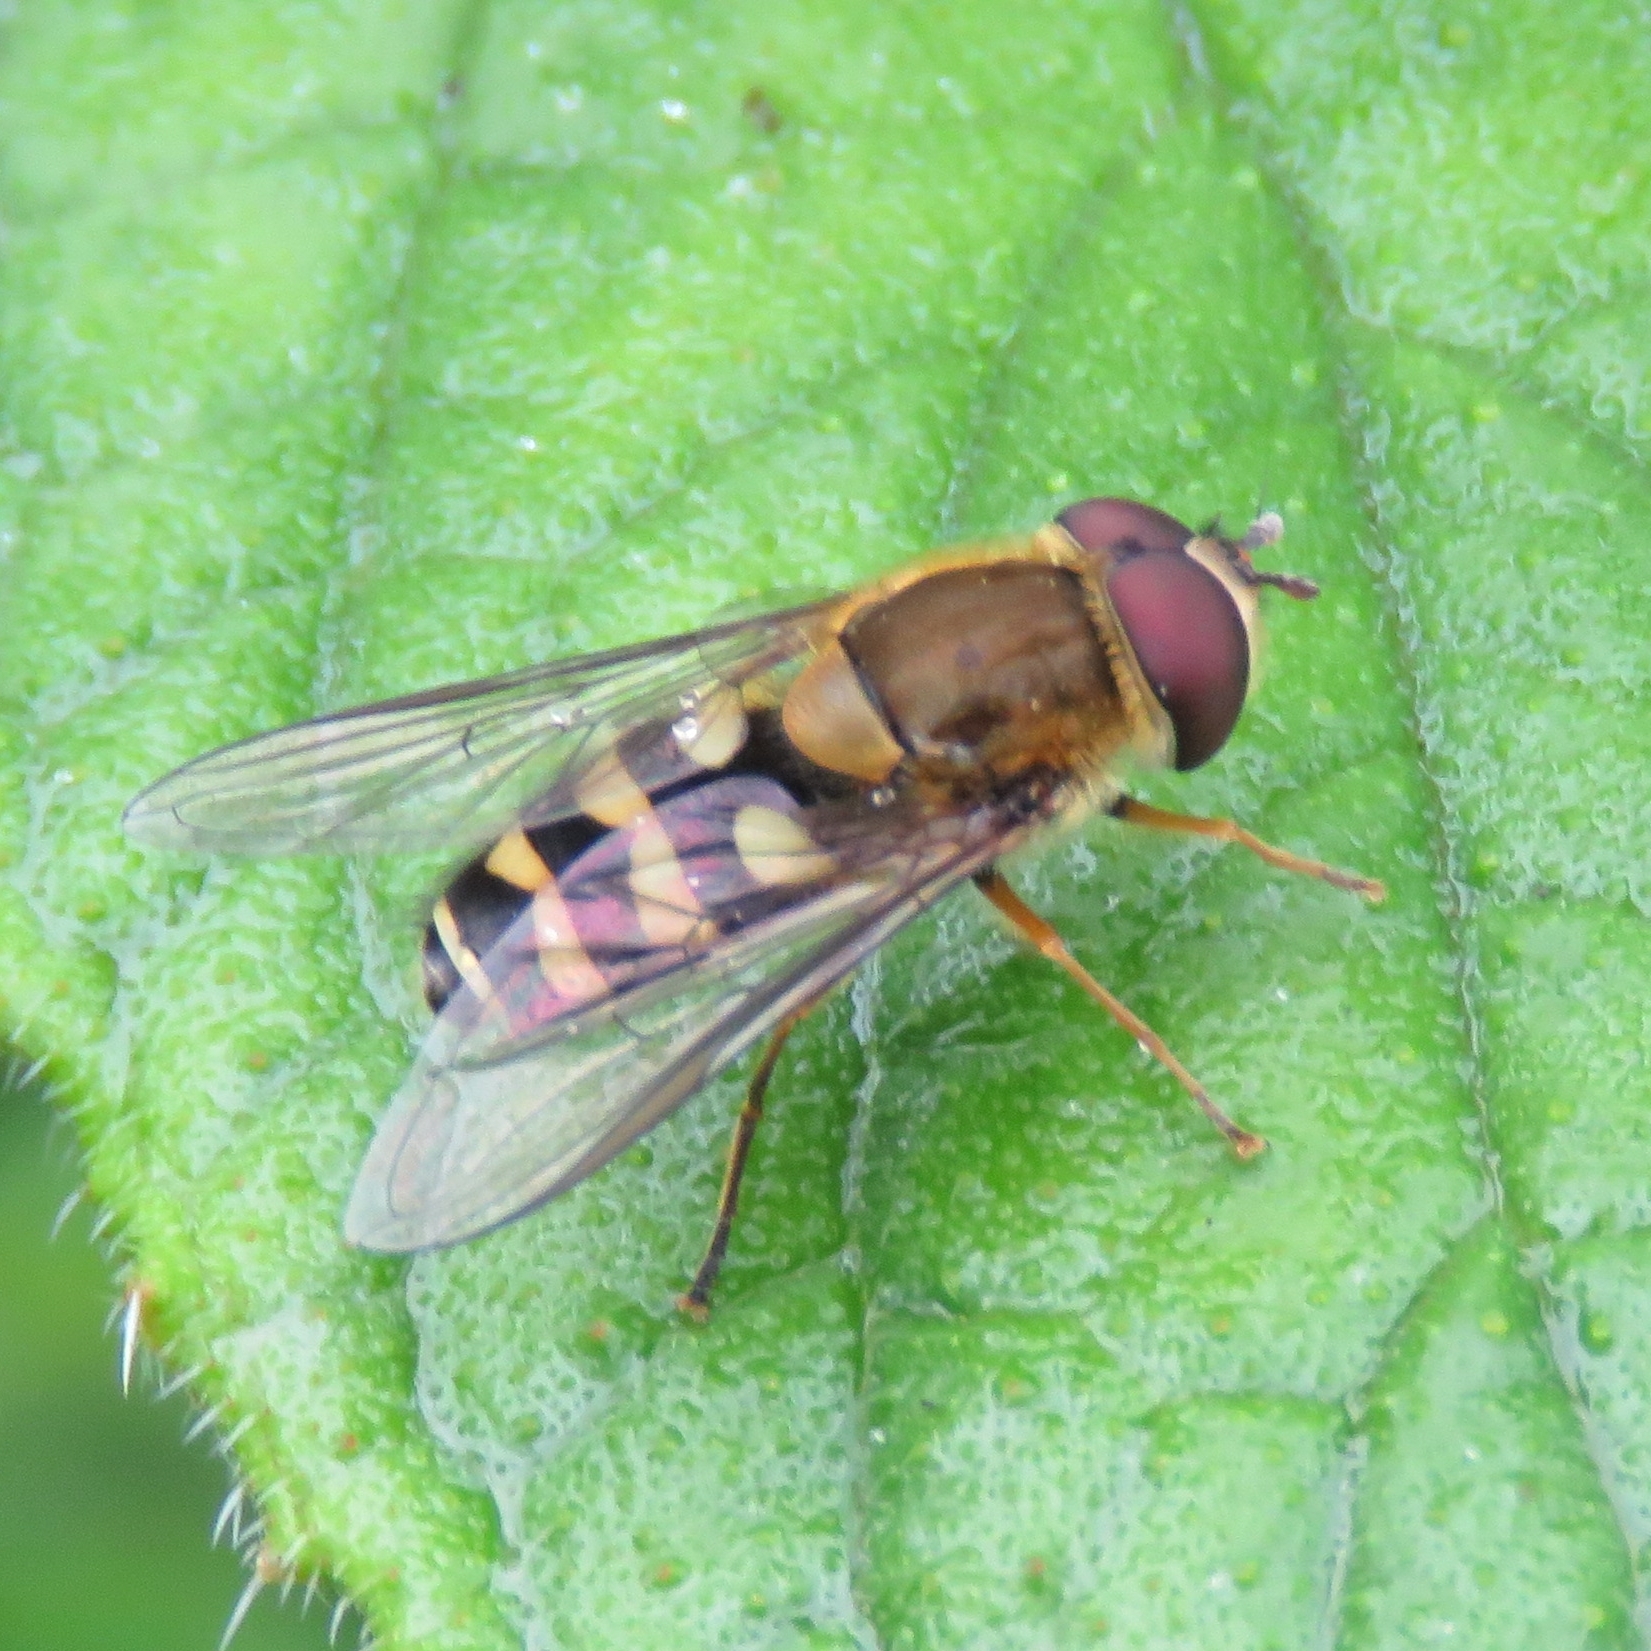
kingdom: Animalia
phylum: Arthropoda
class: Insecta
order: Diptera
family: Syrphidae
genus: Syrphus
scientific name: Syrphus
